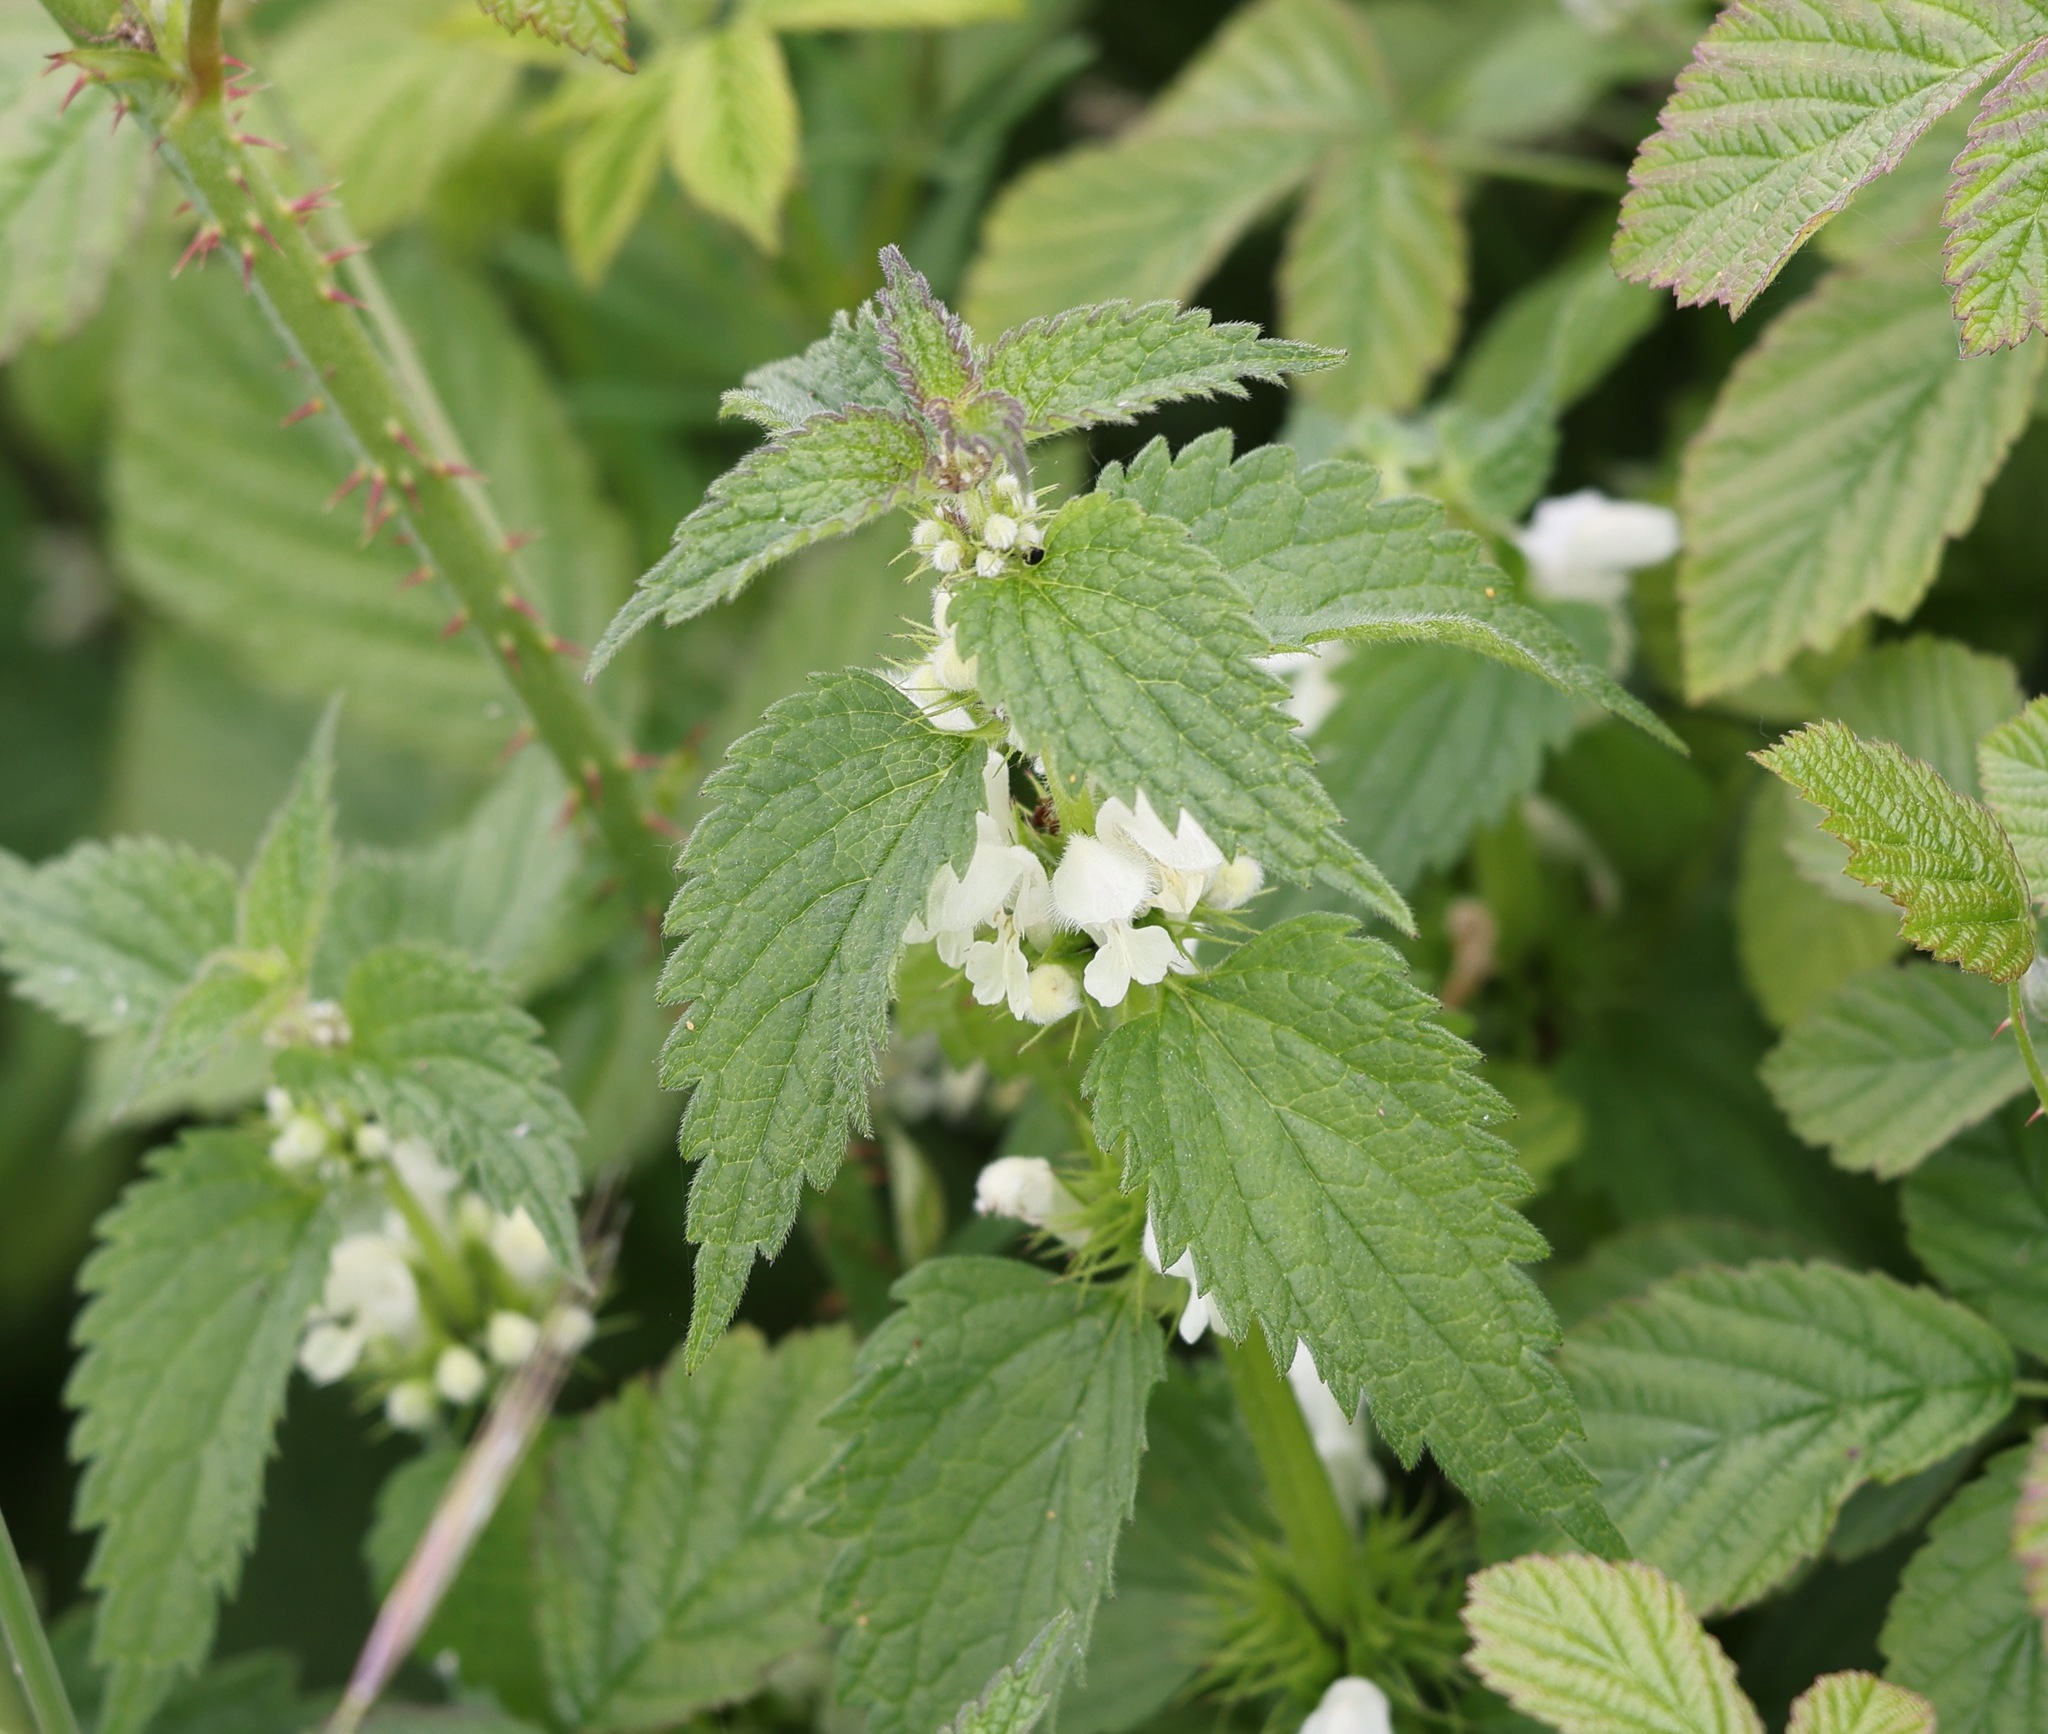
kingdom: Plantae
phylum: Tracheophyta
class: Magnoliopsida
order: Lamiales
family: Lamiaceae
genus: Lamium
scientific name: Lamium album
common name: White dead-nettle
